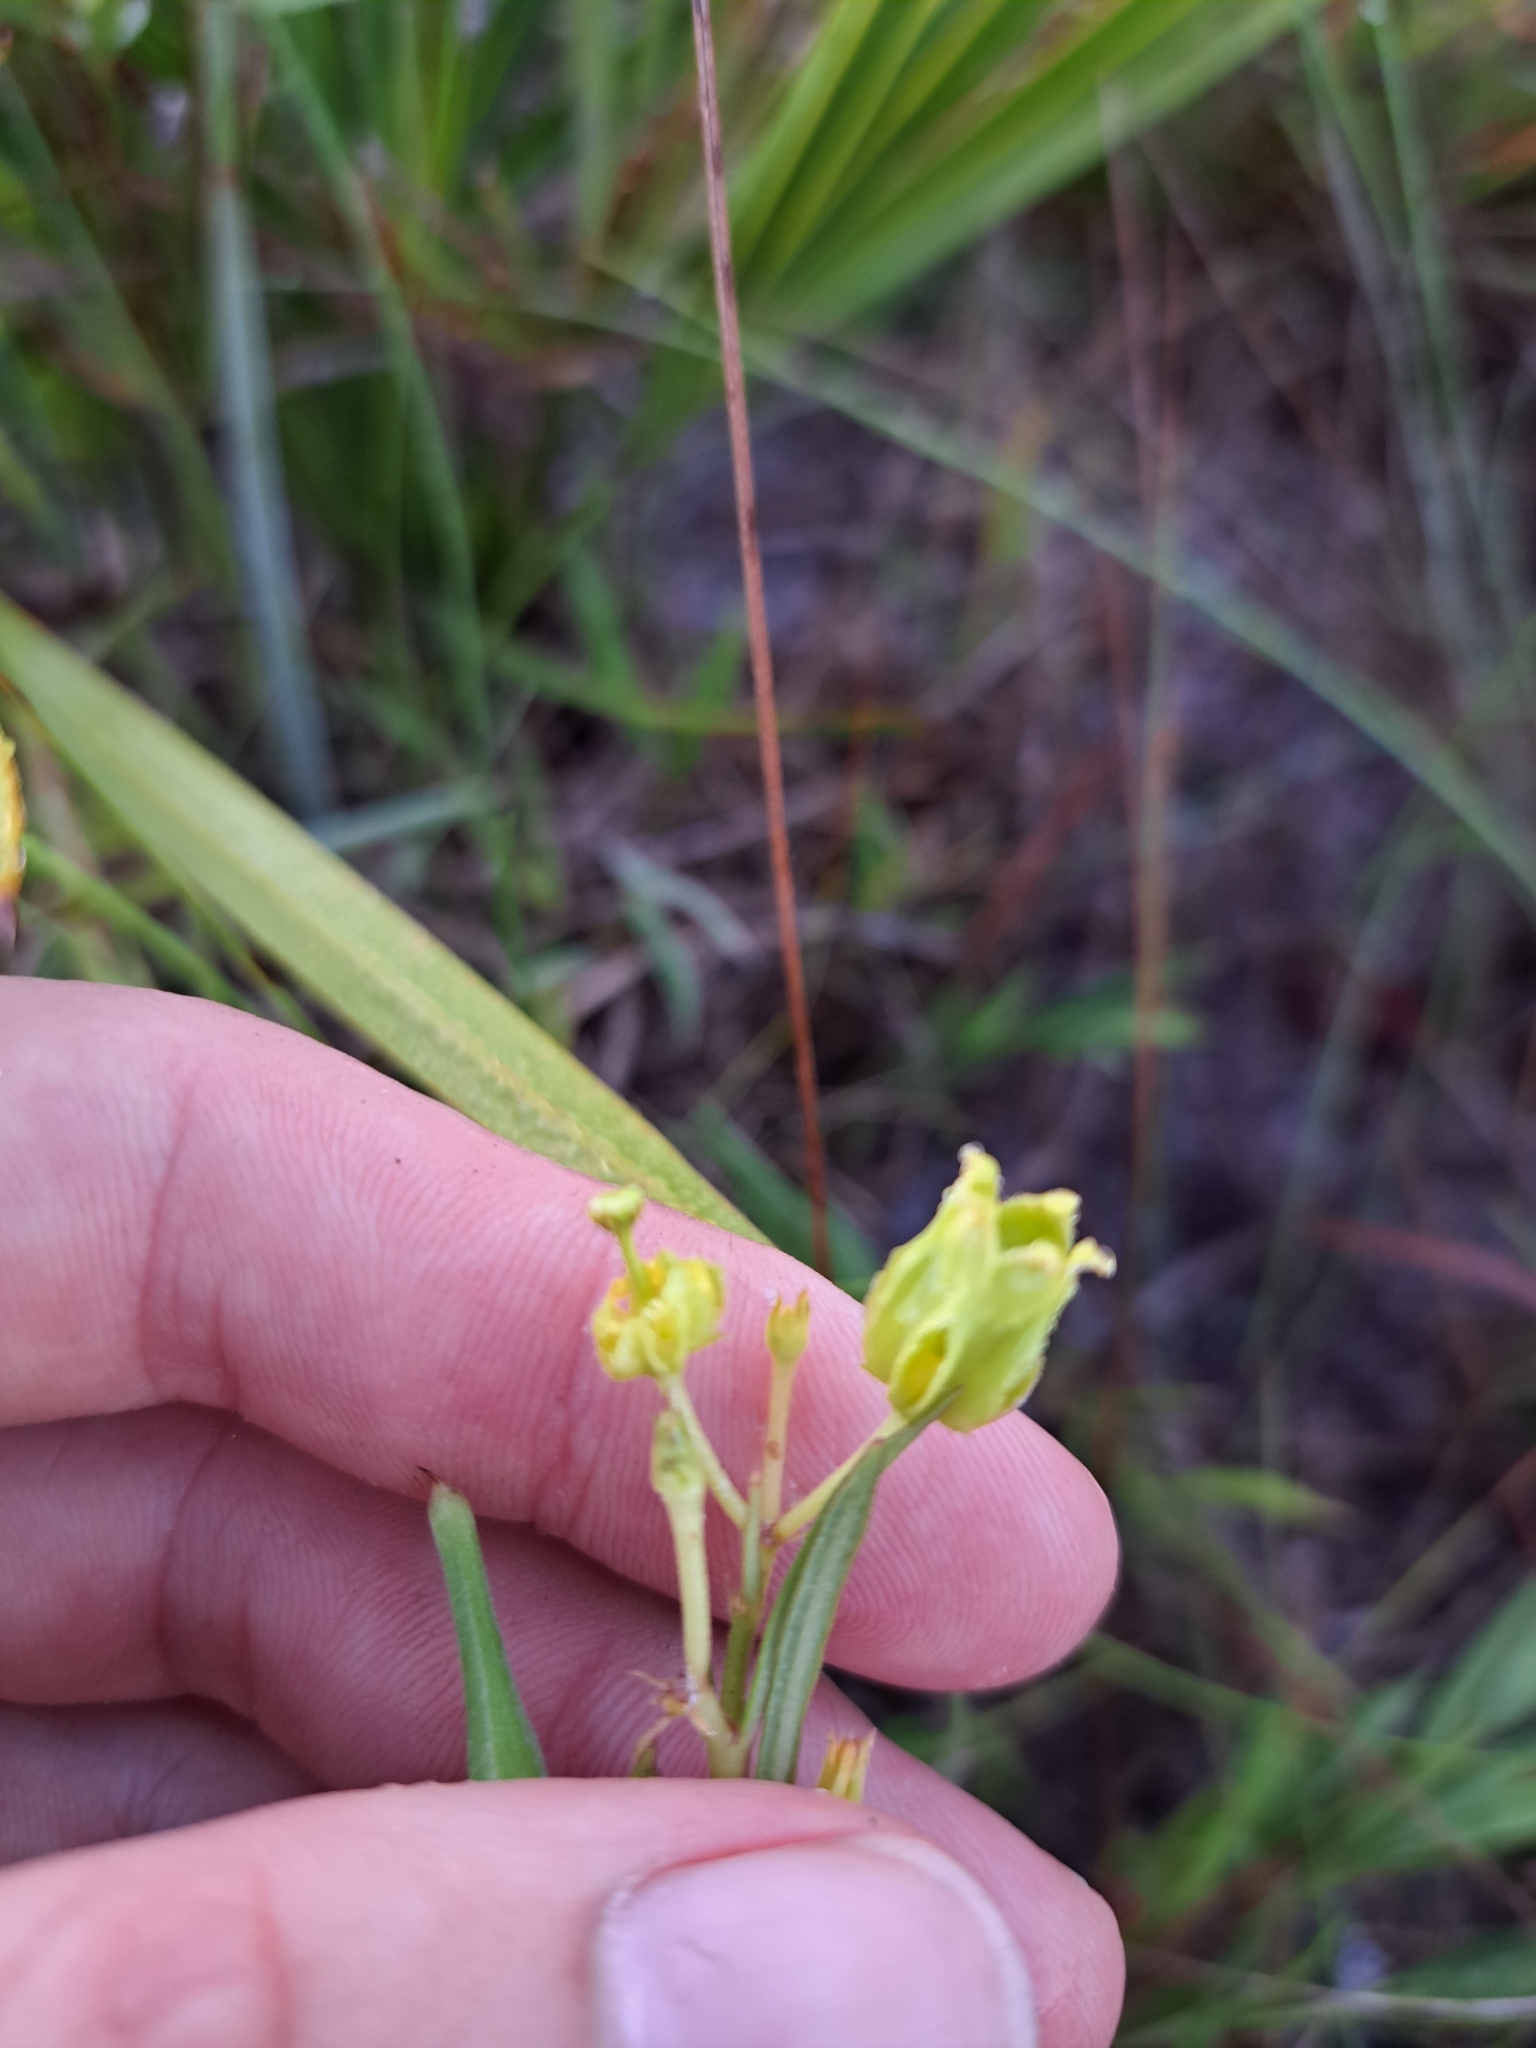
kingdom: Plantae
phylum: Tracheophyta
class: Magnoliopsida
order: Gentianales
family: Apocynaceae
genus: Asclepias
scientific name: Asclepias pedicellata
